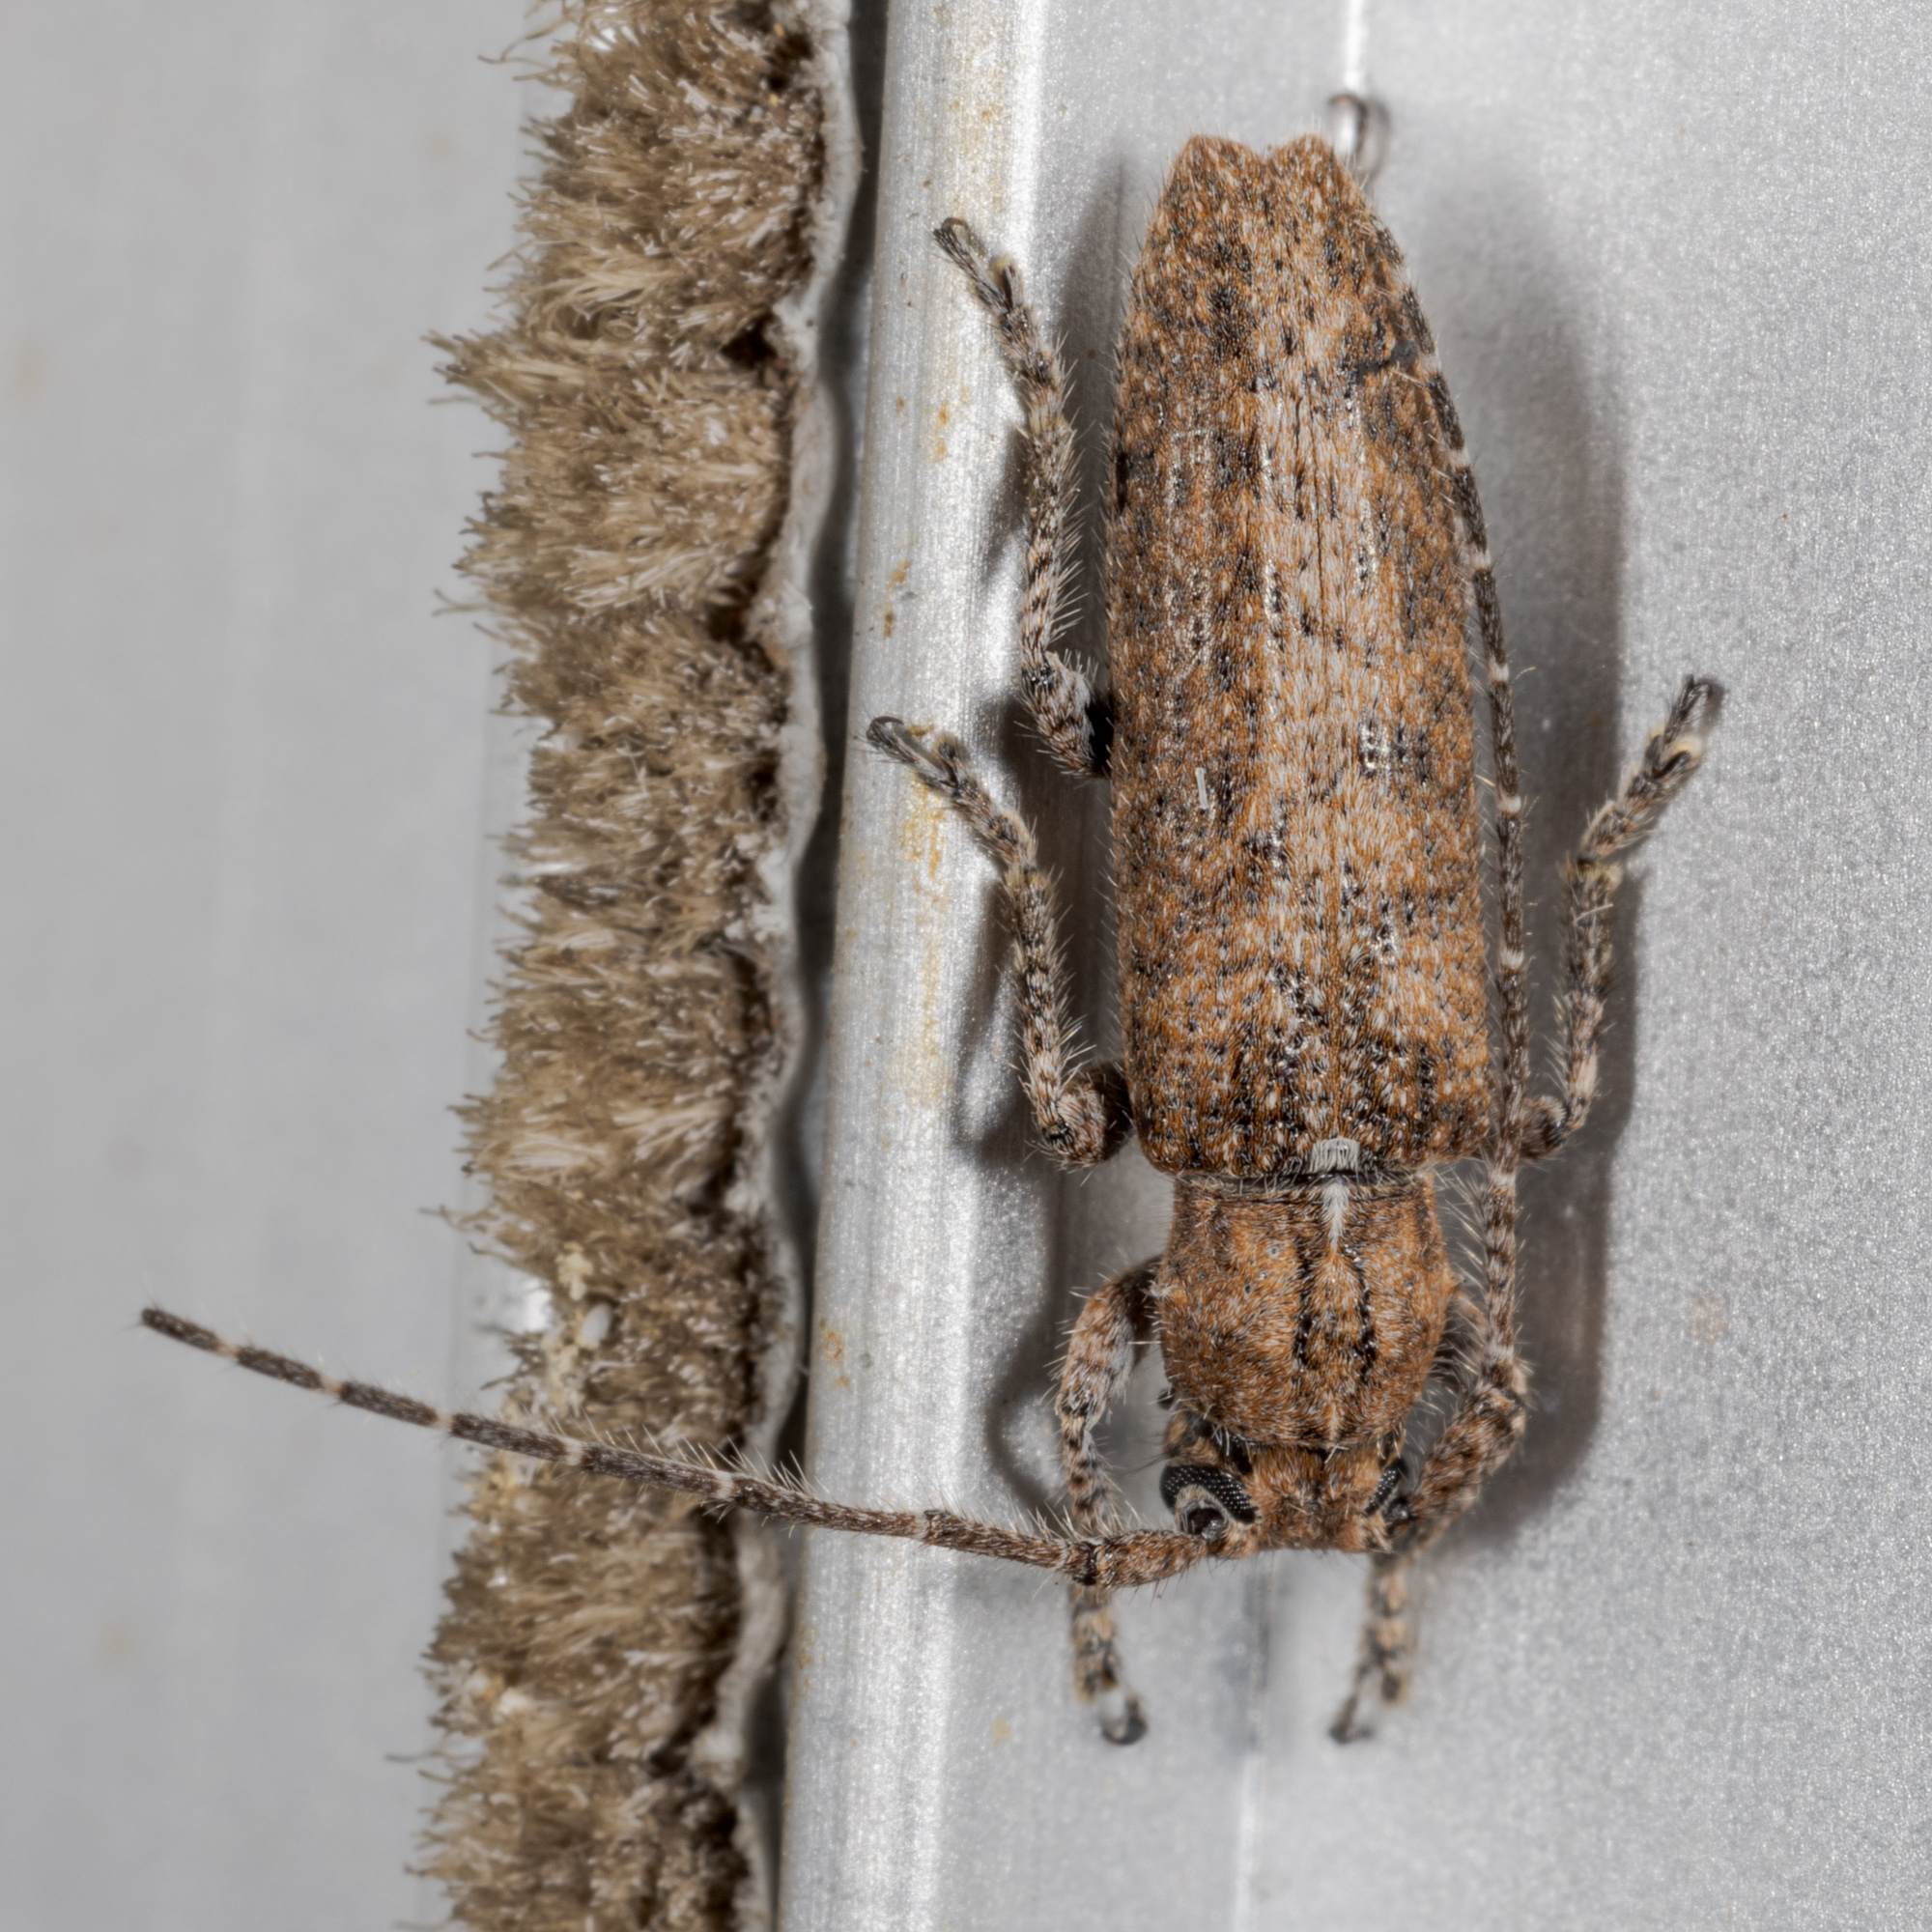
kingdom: Animalia
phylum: Arthropoda
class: Insecta
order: Coleoptera
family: Cerambycidae
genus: Ataxia
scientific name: Ataxia crypta
